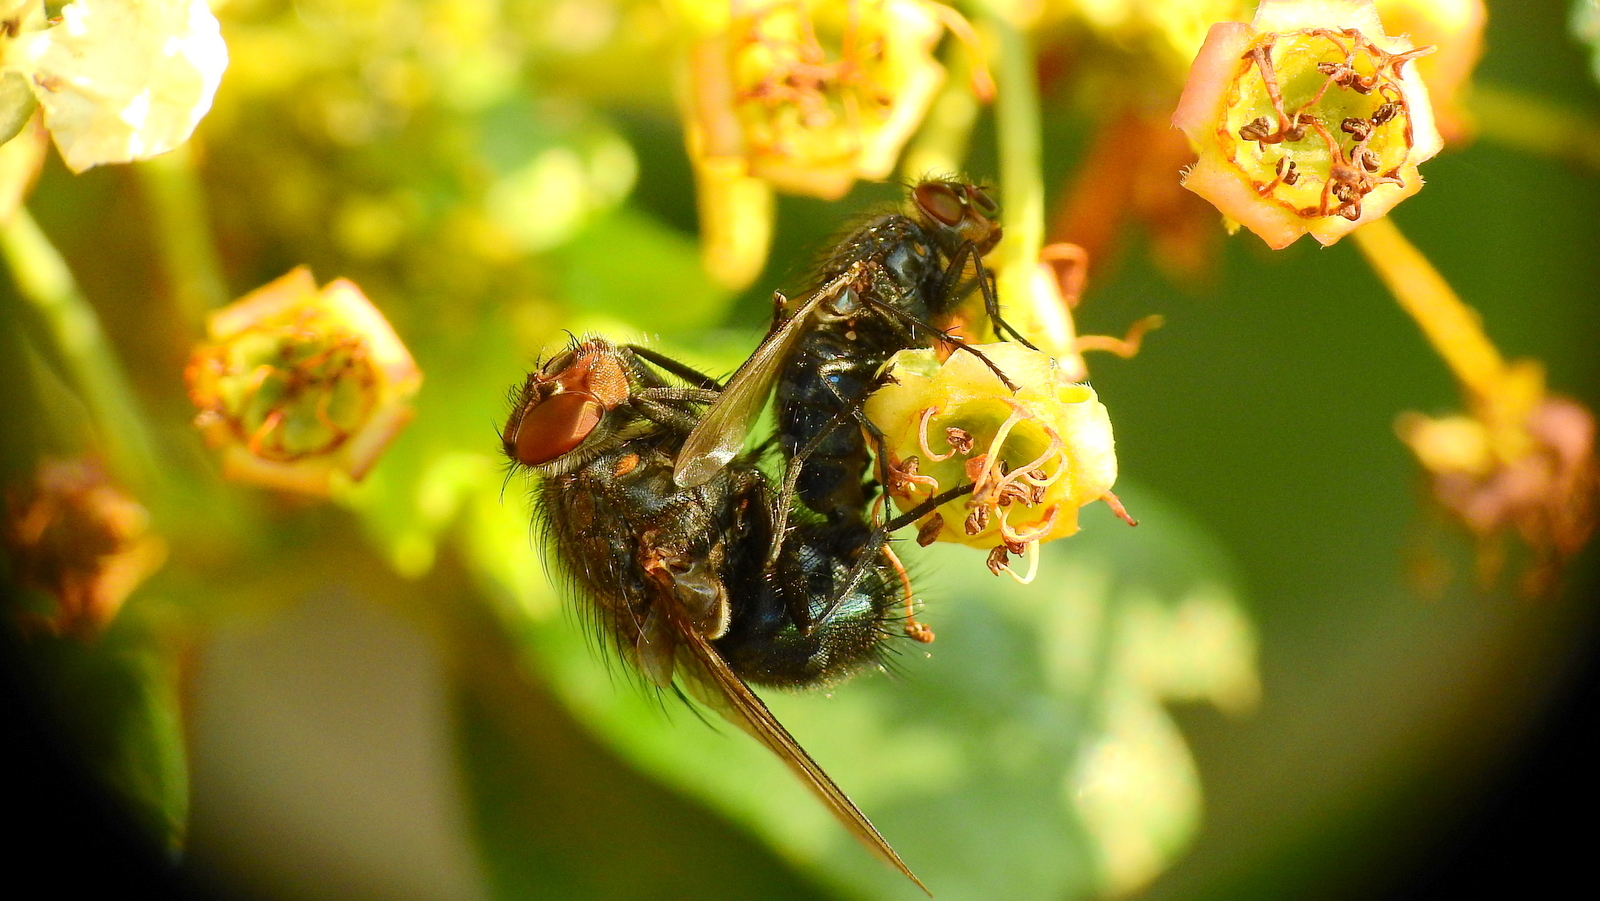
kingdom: Animalia
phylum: Arthropoda
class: Insecta
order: Diptera
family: Calliphoridae
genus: Calliphora
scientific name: Calliphora vicina
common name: Common blow flie
